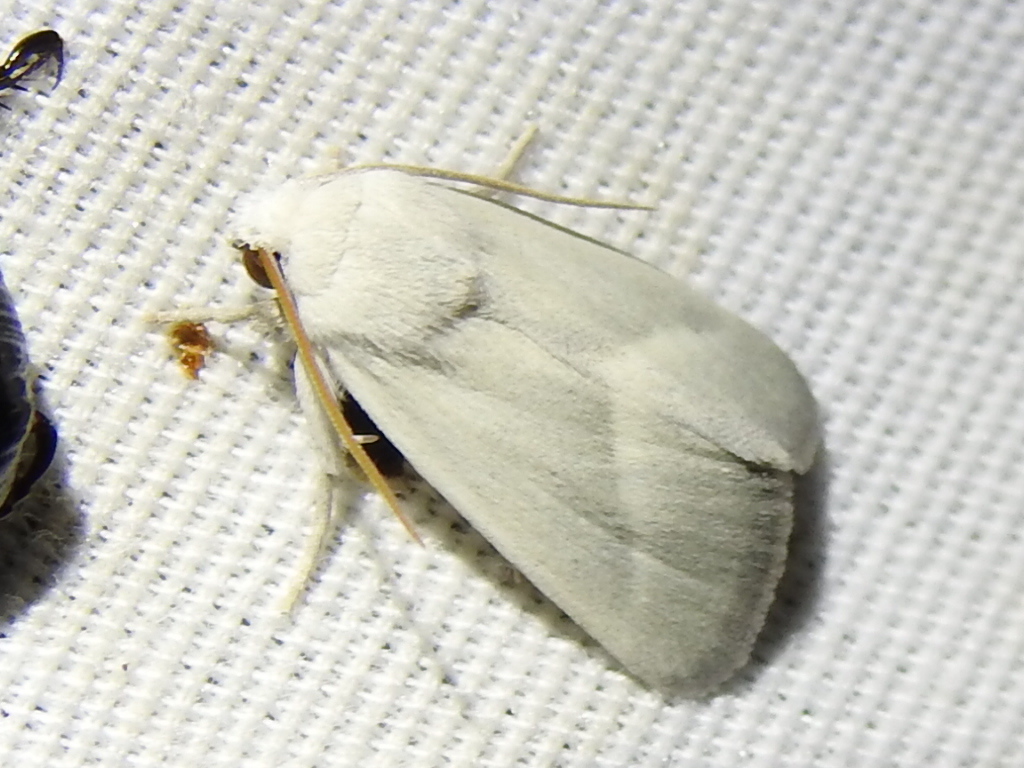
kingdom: Animalia
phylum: Arthropoda
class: Insecta
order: Lepidoptera
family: Noctuidae
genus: Leucocnemis
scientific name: Leucocnemis nivalis
